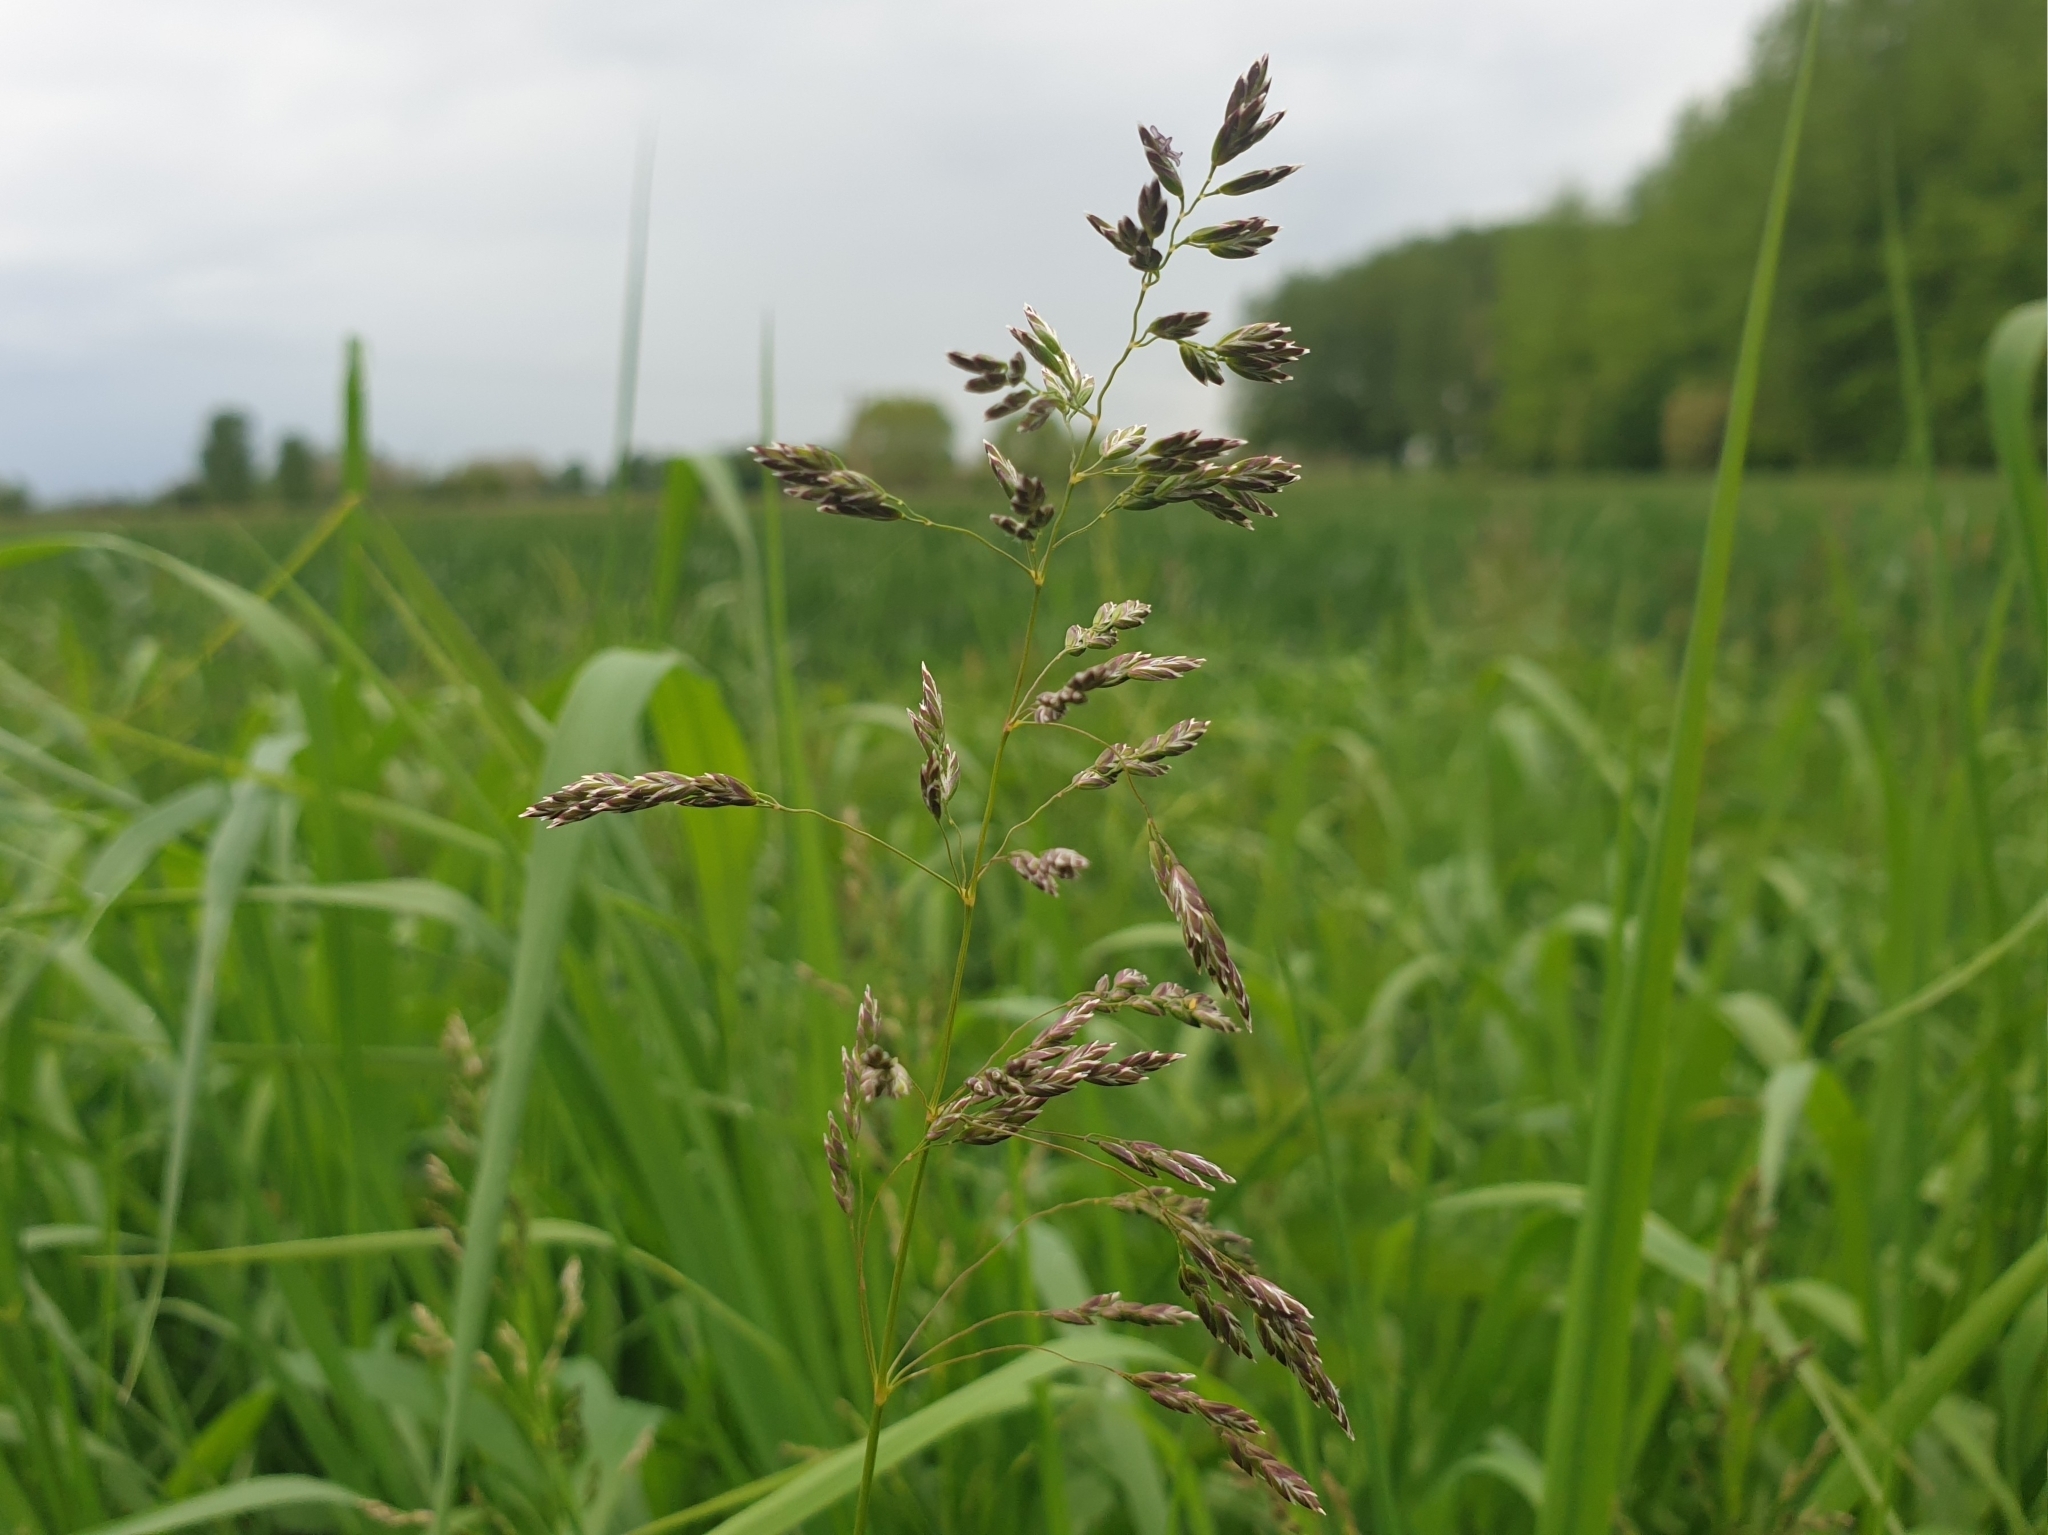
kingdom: Plantae
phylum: Tracheophyta
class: Liliopsida
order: Poales
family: Poaceae
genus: Poa
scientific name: Poa pratensis
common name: Kentucky bluegrass
